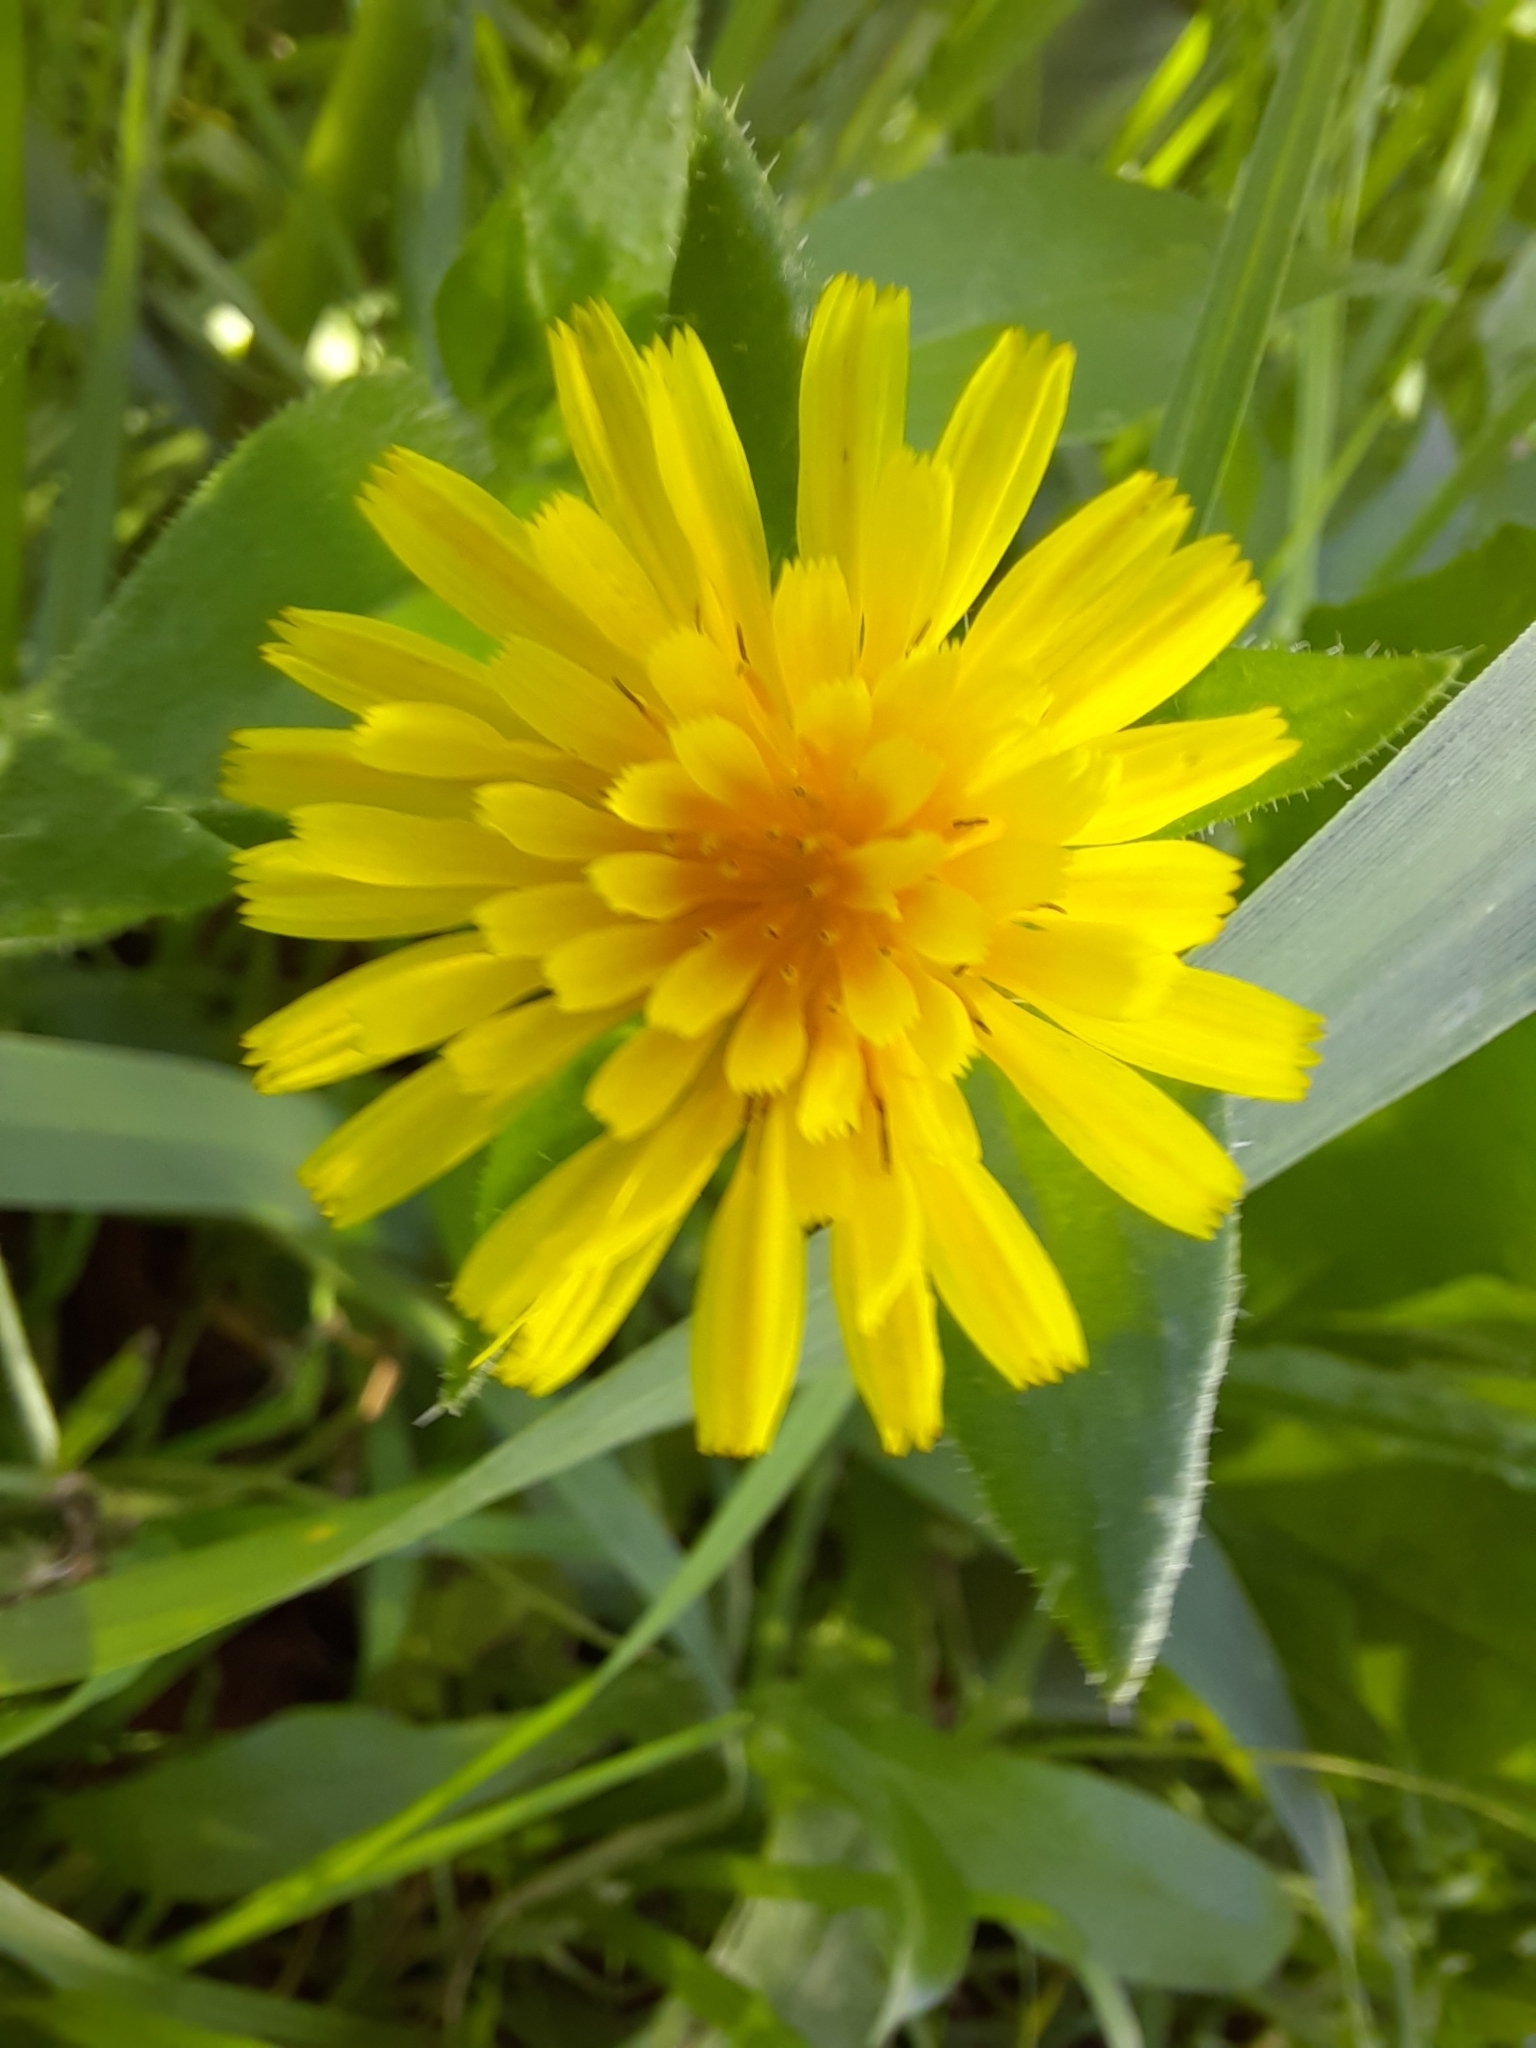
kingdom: Plantae
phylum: Tracheophyta
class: Magnoliopsida
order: Asterales
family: Asteraceae
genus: Taraxacum
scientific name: Taraxacum officinale
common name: Common dandelion
